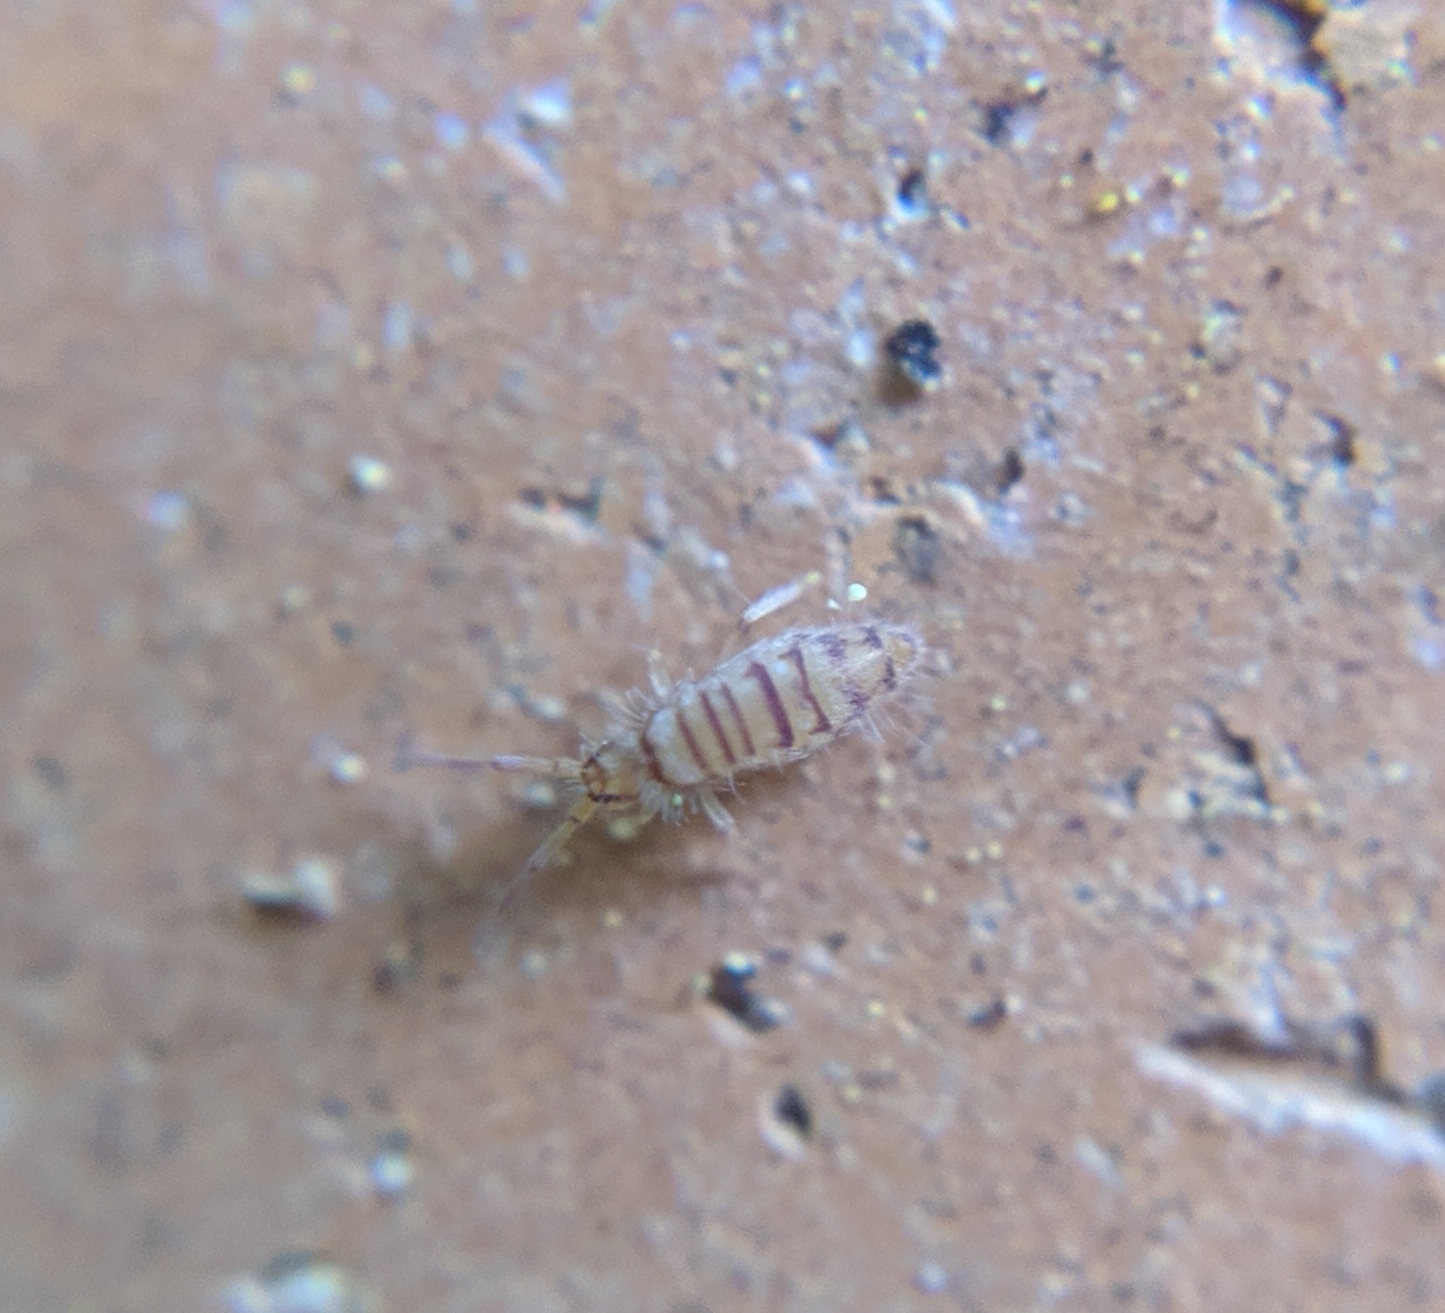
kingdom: Animalia
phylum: Arthropoda
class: Collembola
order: Entomobryomorpha
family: Entomobryidae
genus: Entomobrya
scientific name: Entomobrya nigrocincta
